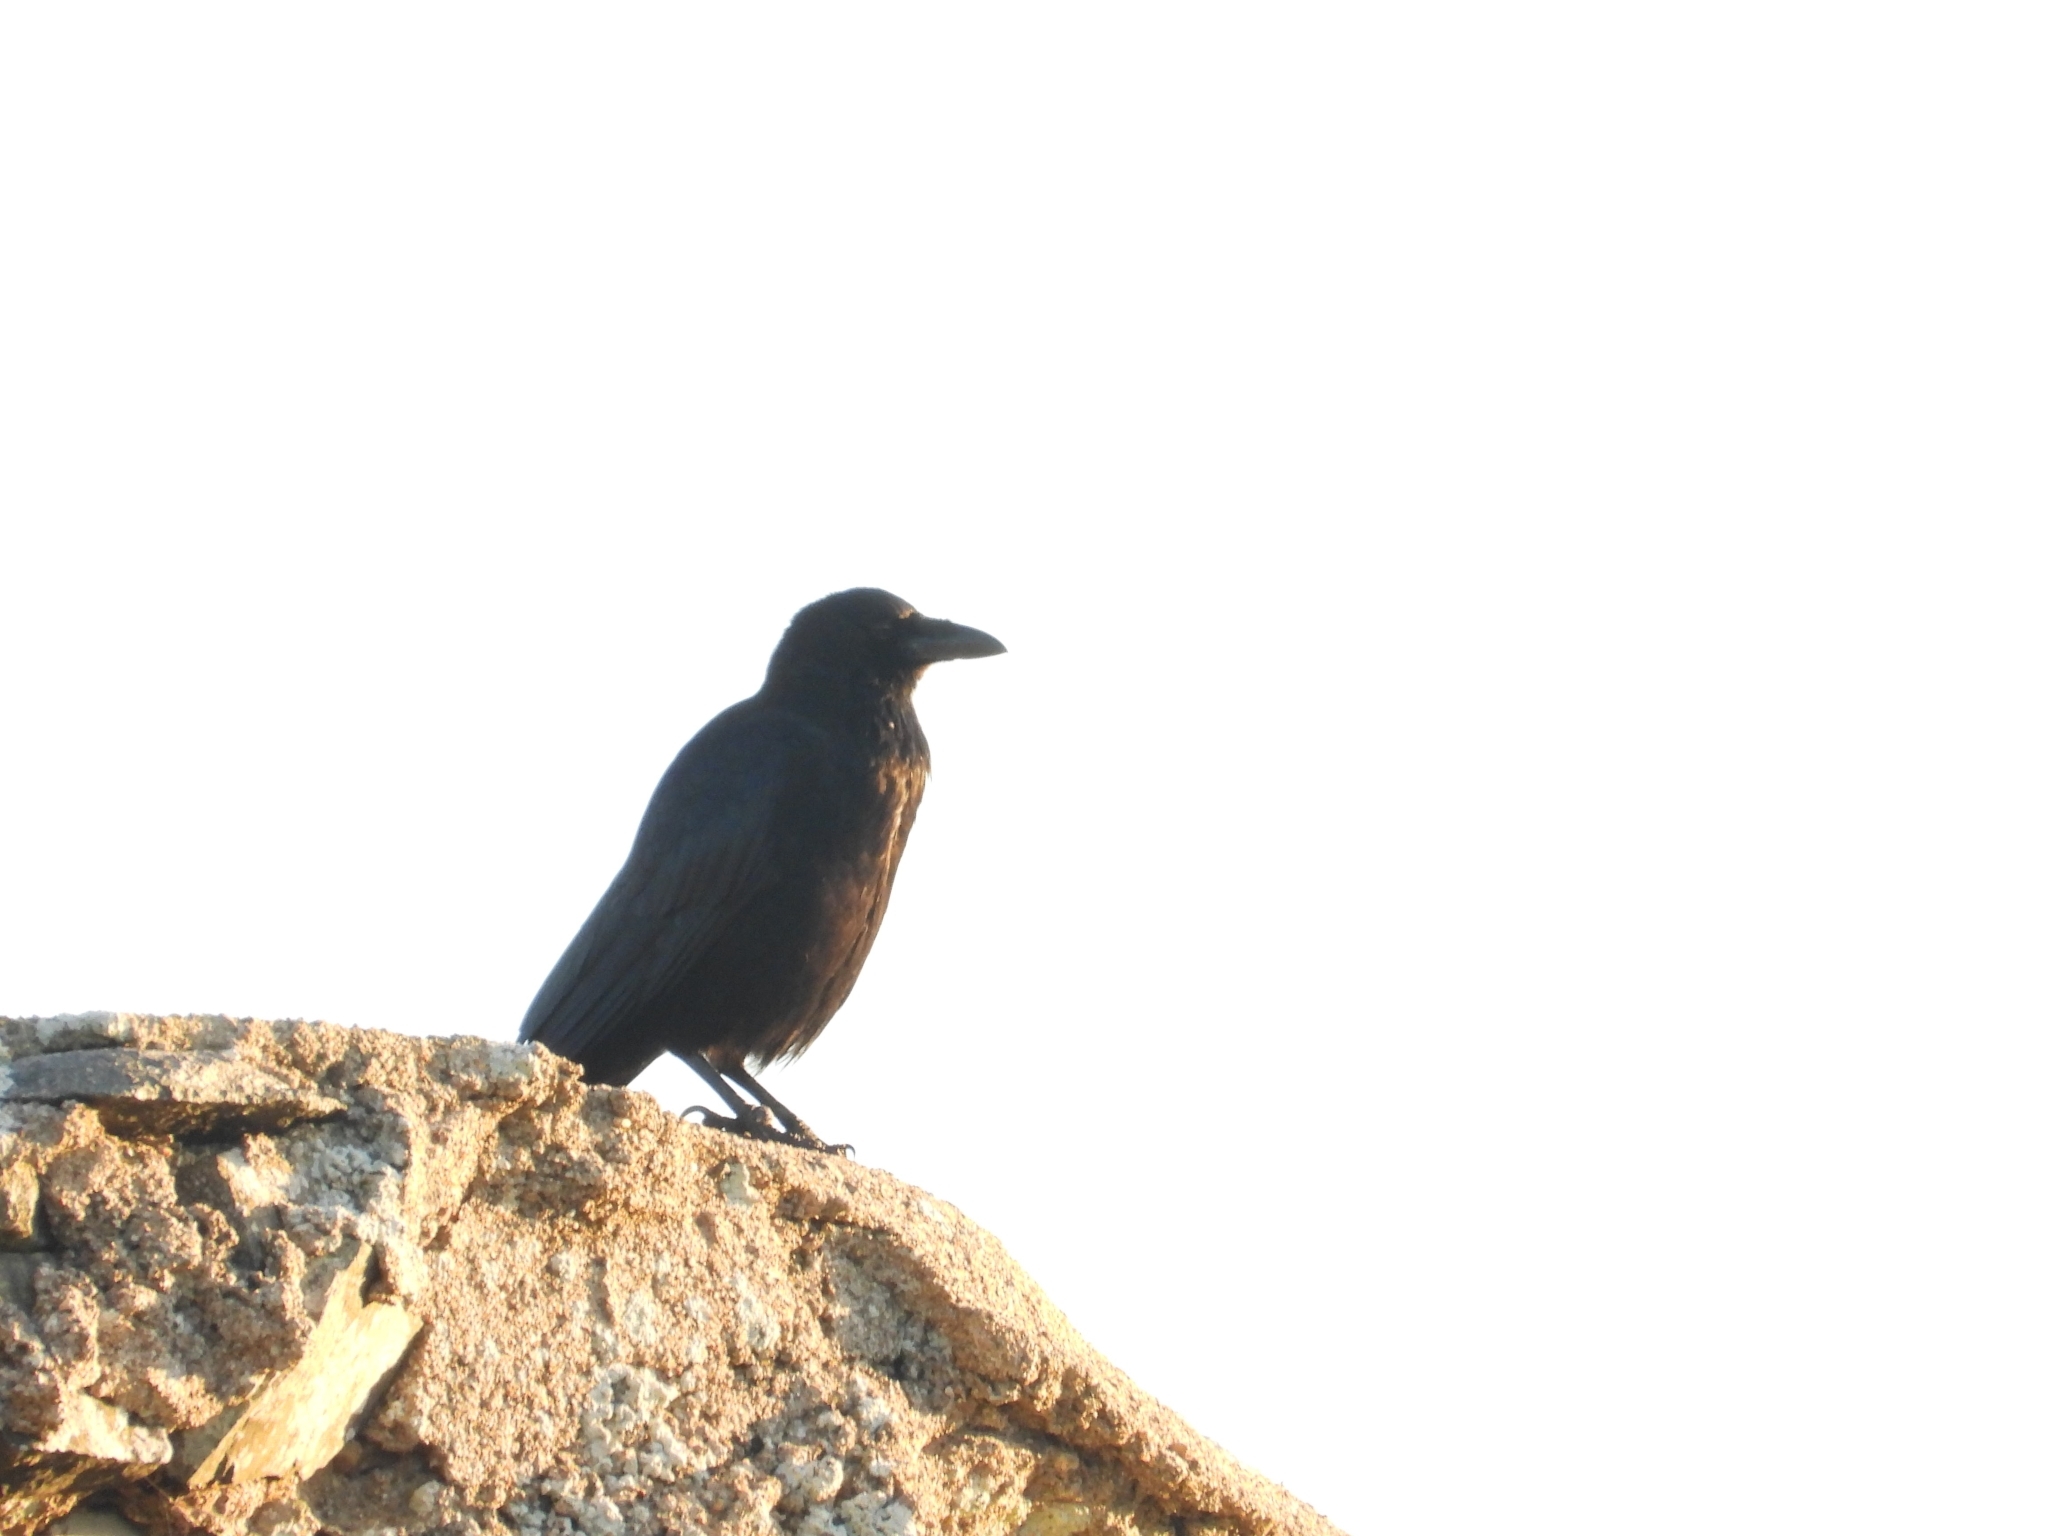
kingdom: Animalia
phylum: Chordata
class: Aves
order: Passeriformes
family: Corvidae
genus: Corvus
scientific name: Corvus corone
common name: Carrion crow
